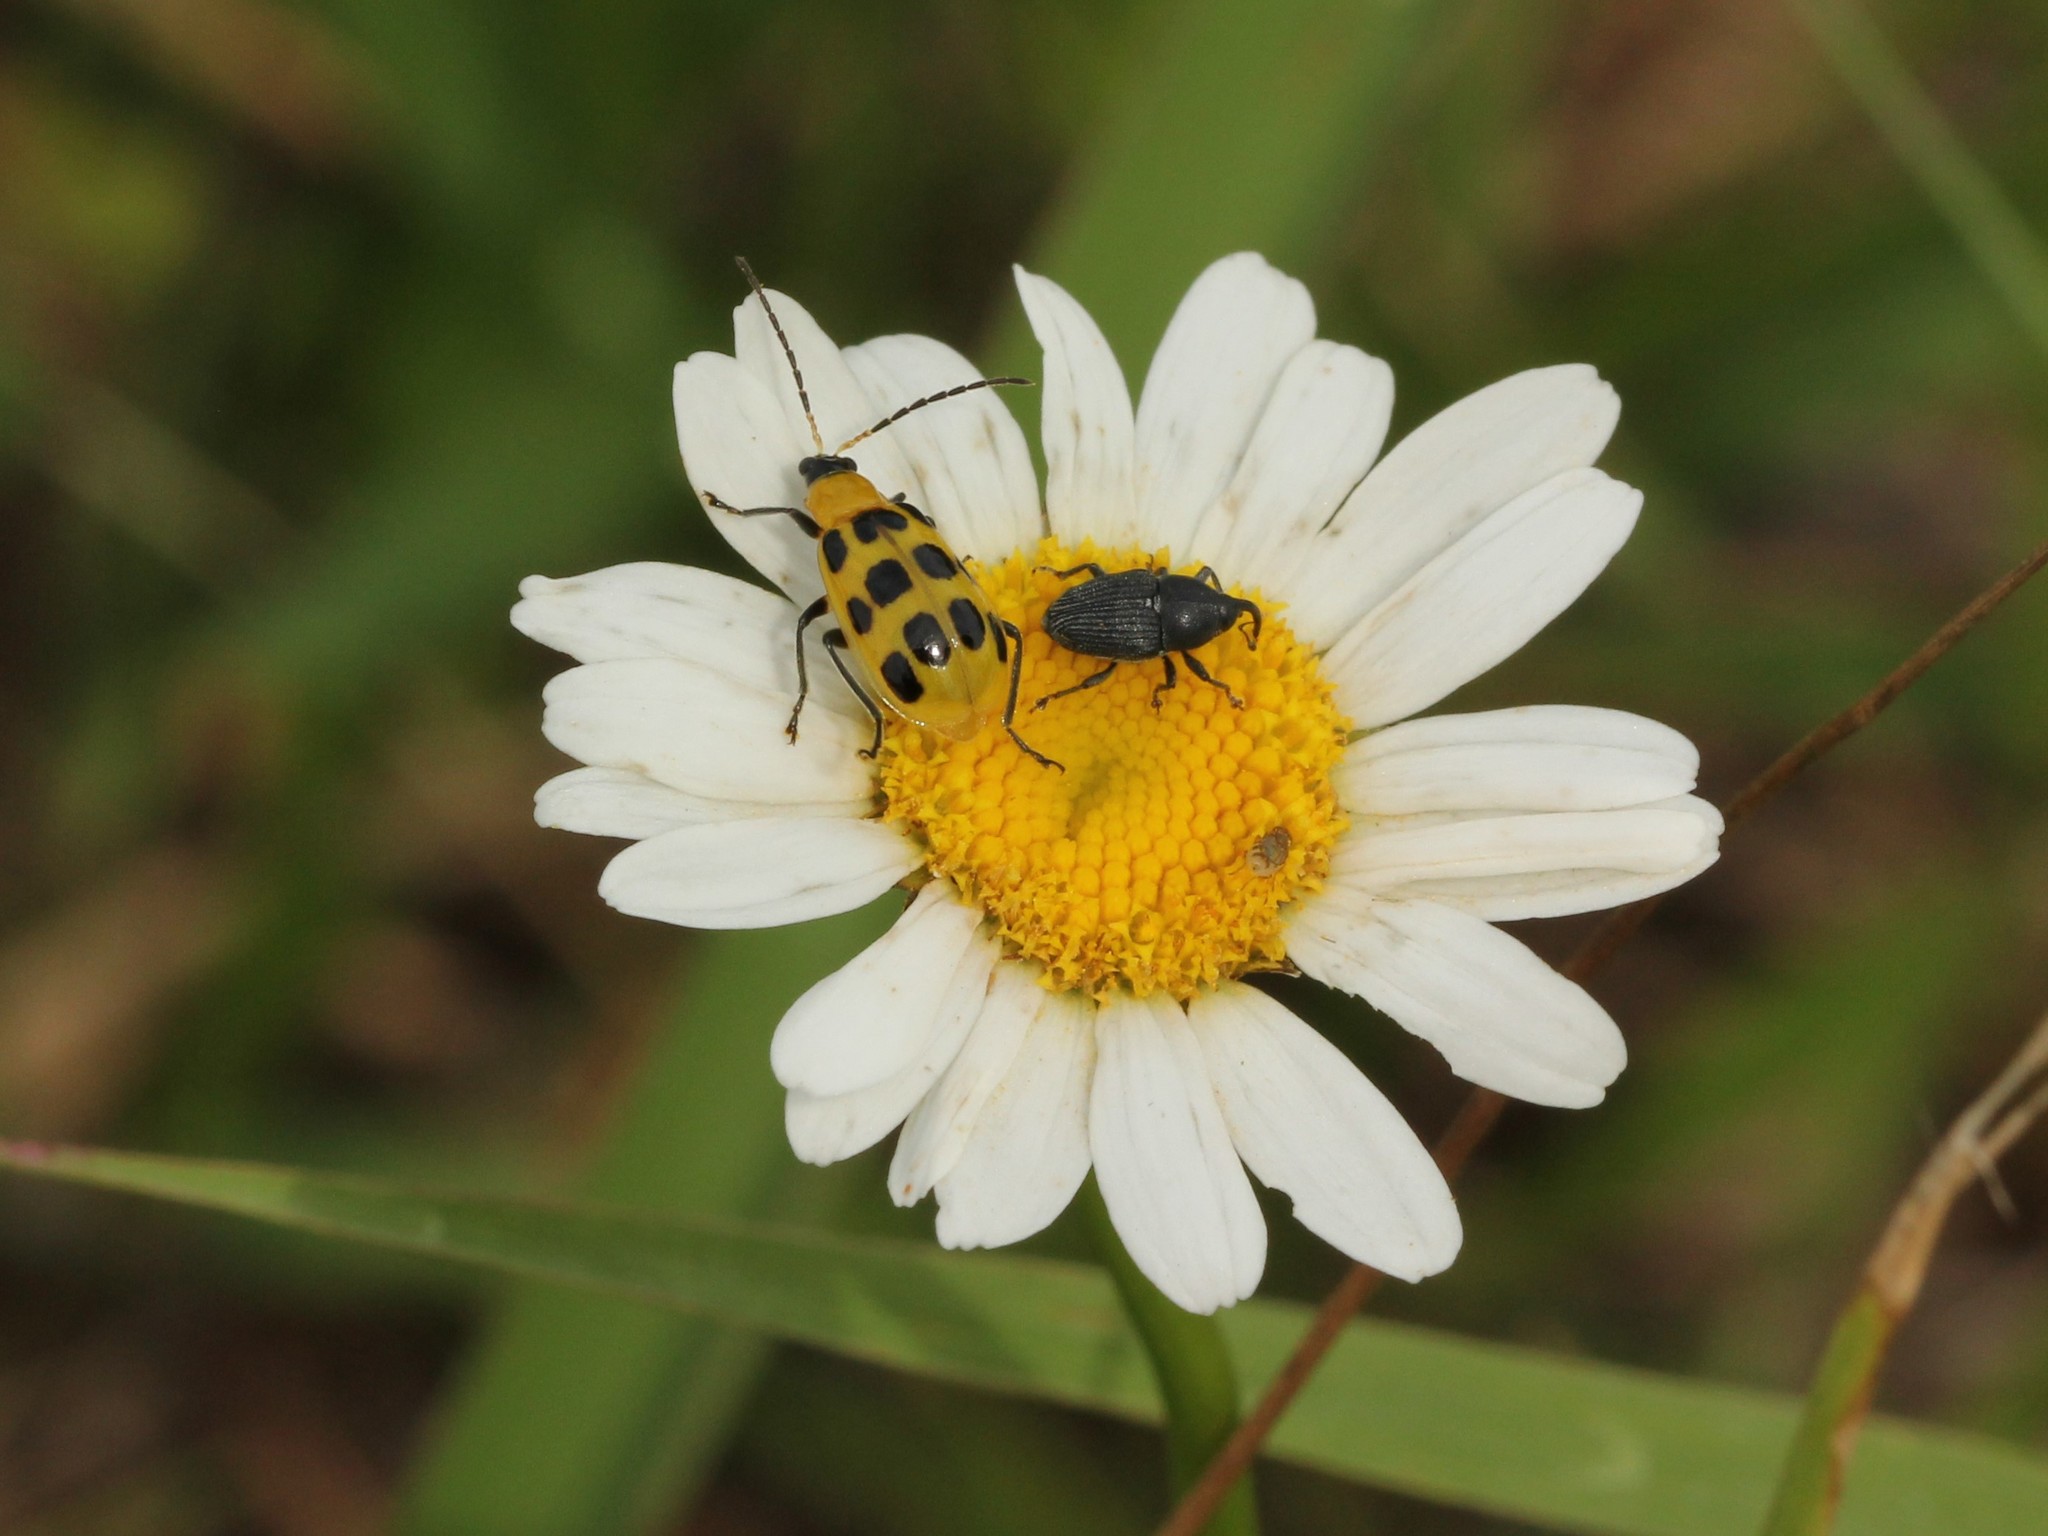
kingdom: Animalia
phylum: Arthropoda
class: Insecta
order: Coleoptera
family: Chrysomelidae
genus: Diabrotica
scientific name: Diabrotica undecimpunctata
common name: Spotted cucumber beetle
